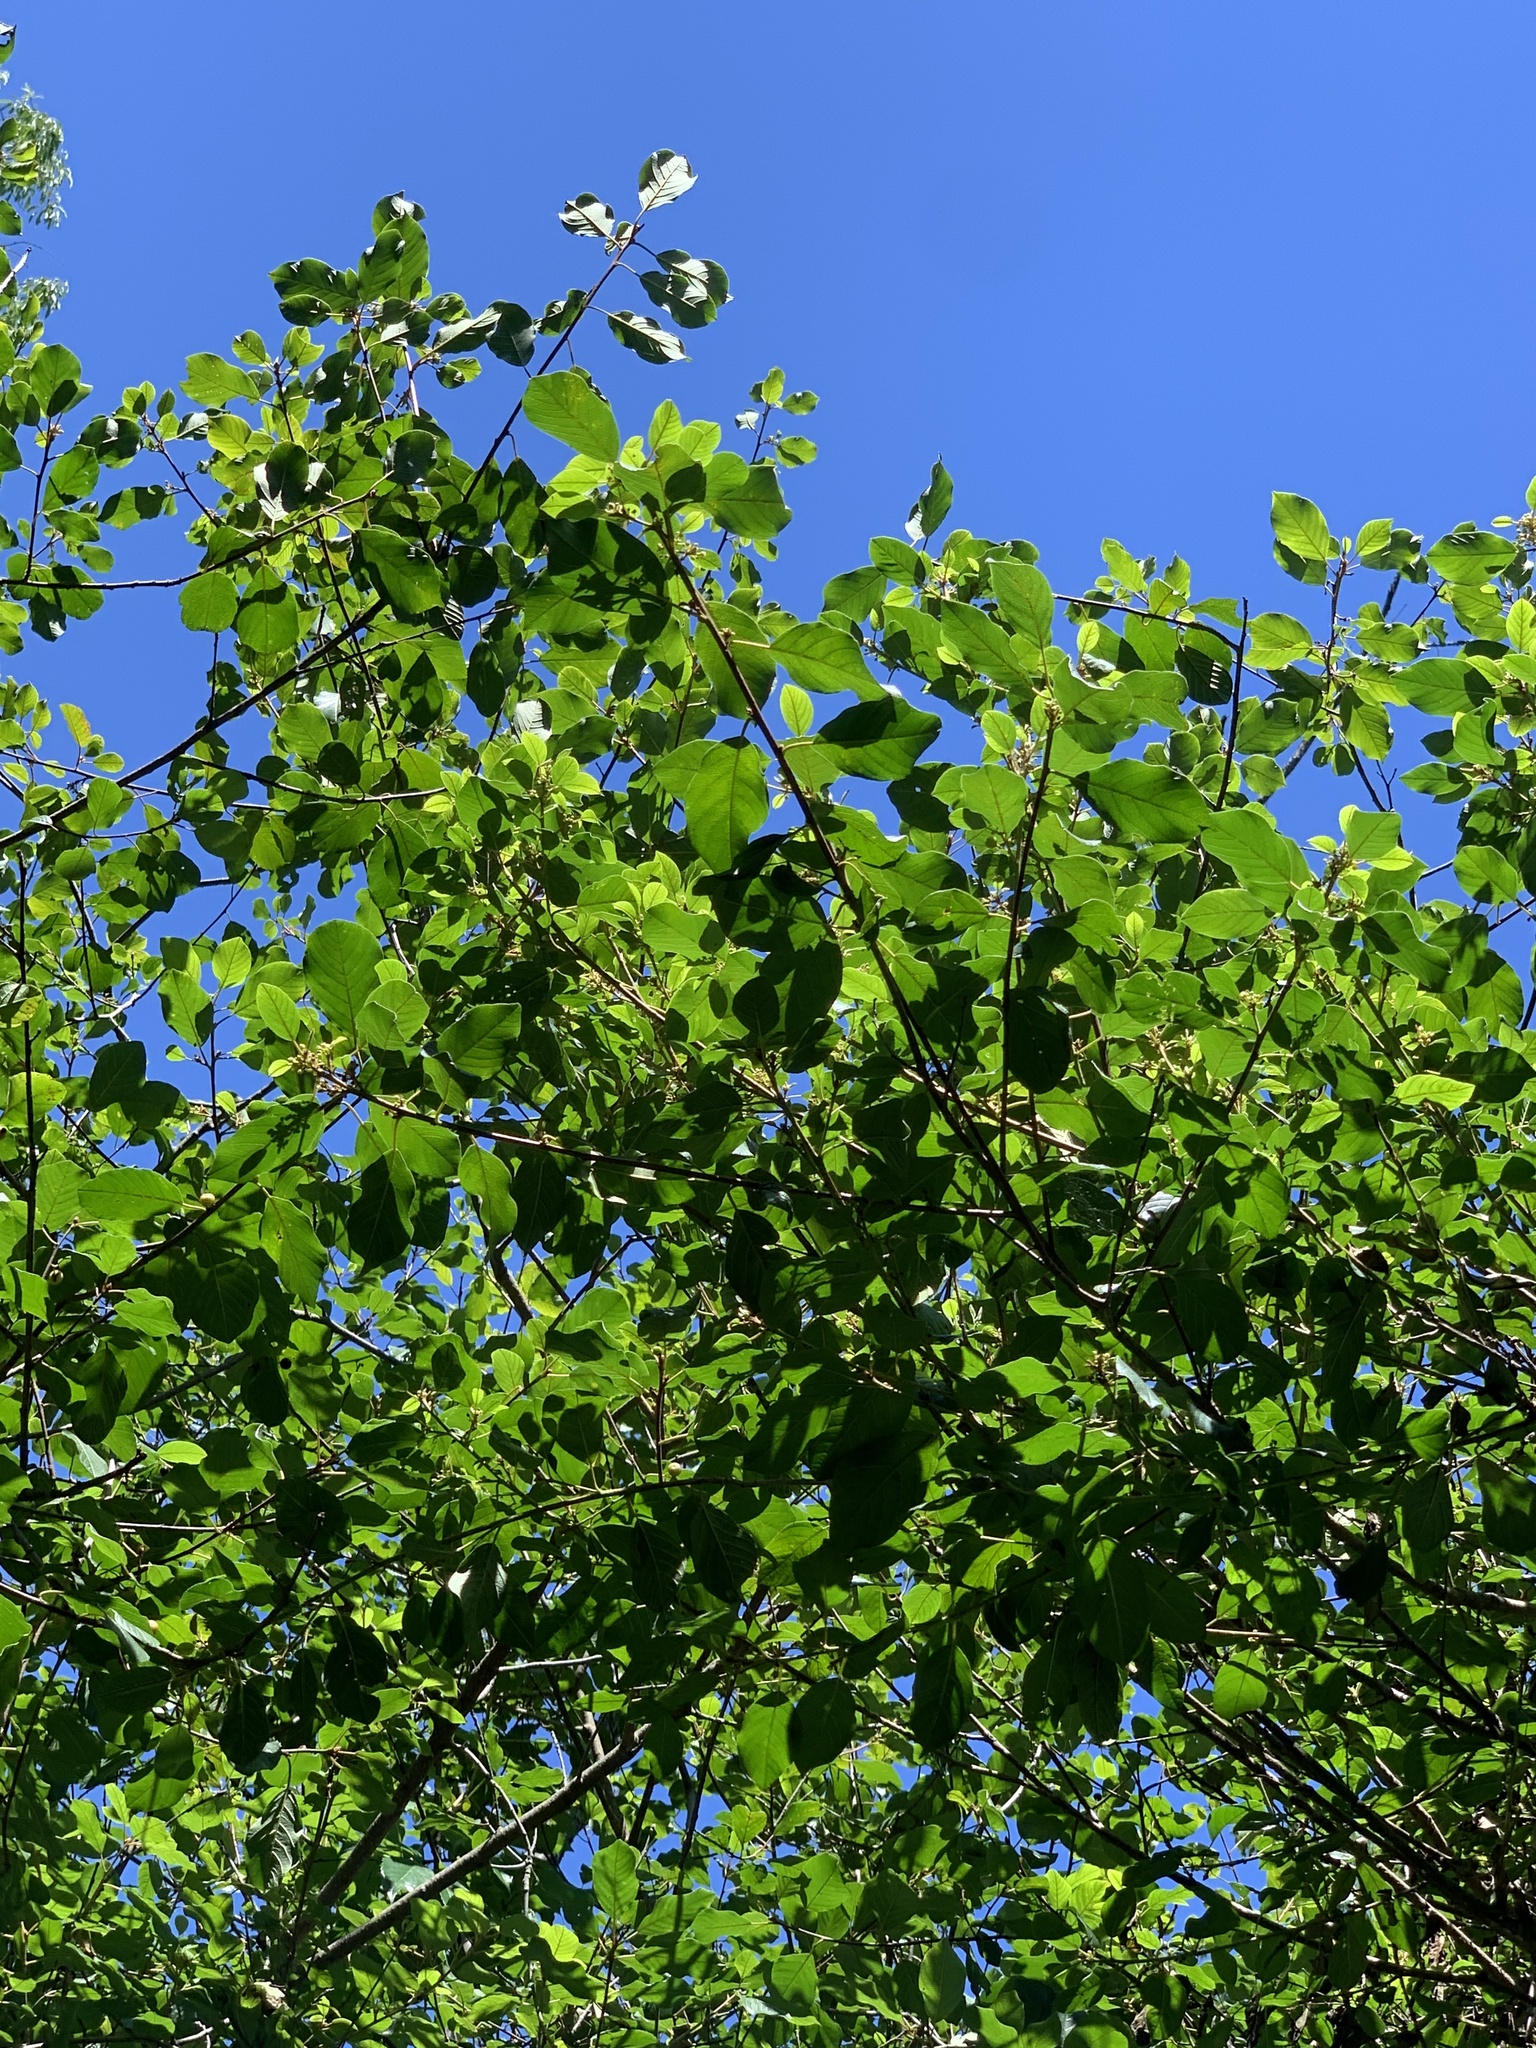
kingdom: Plantae
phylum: Tracheophyta
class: Magnoliopsida
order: Rosales
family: Rhamnaceae
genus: Frangula
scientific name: Frangula alnus
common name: Alder buckthorn
